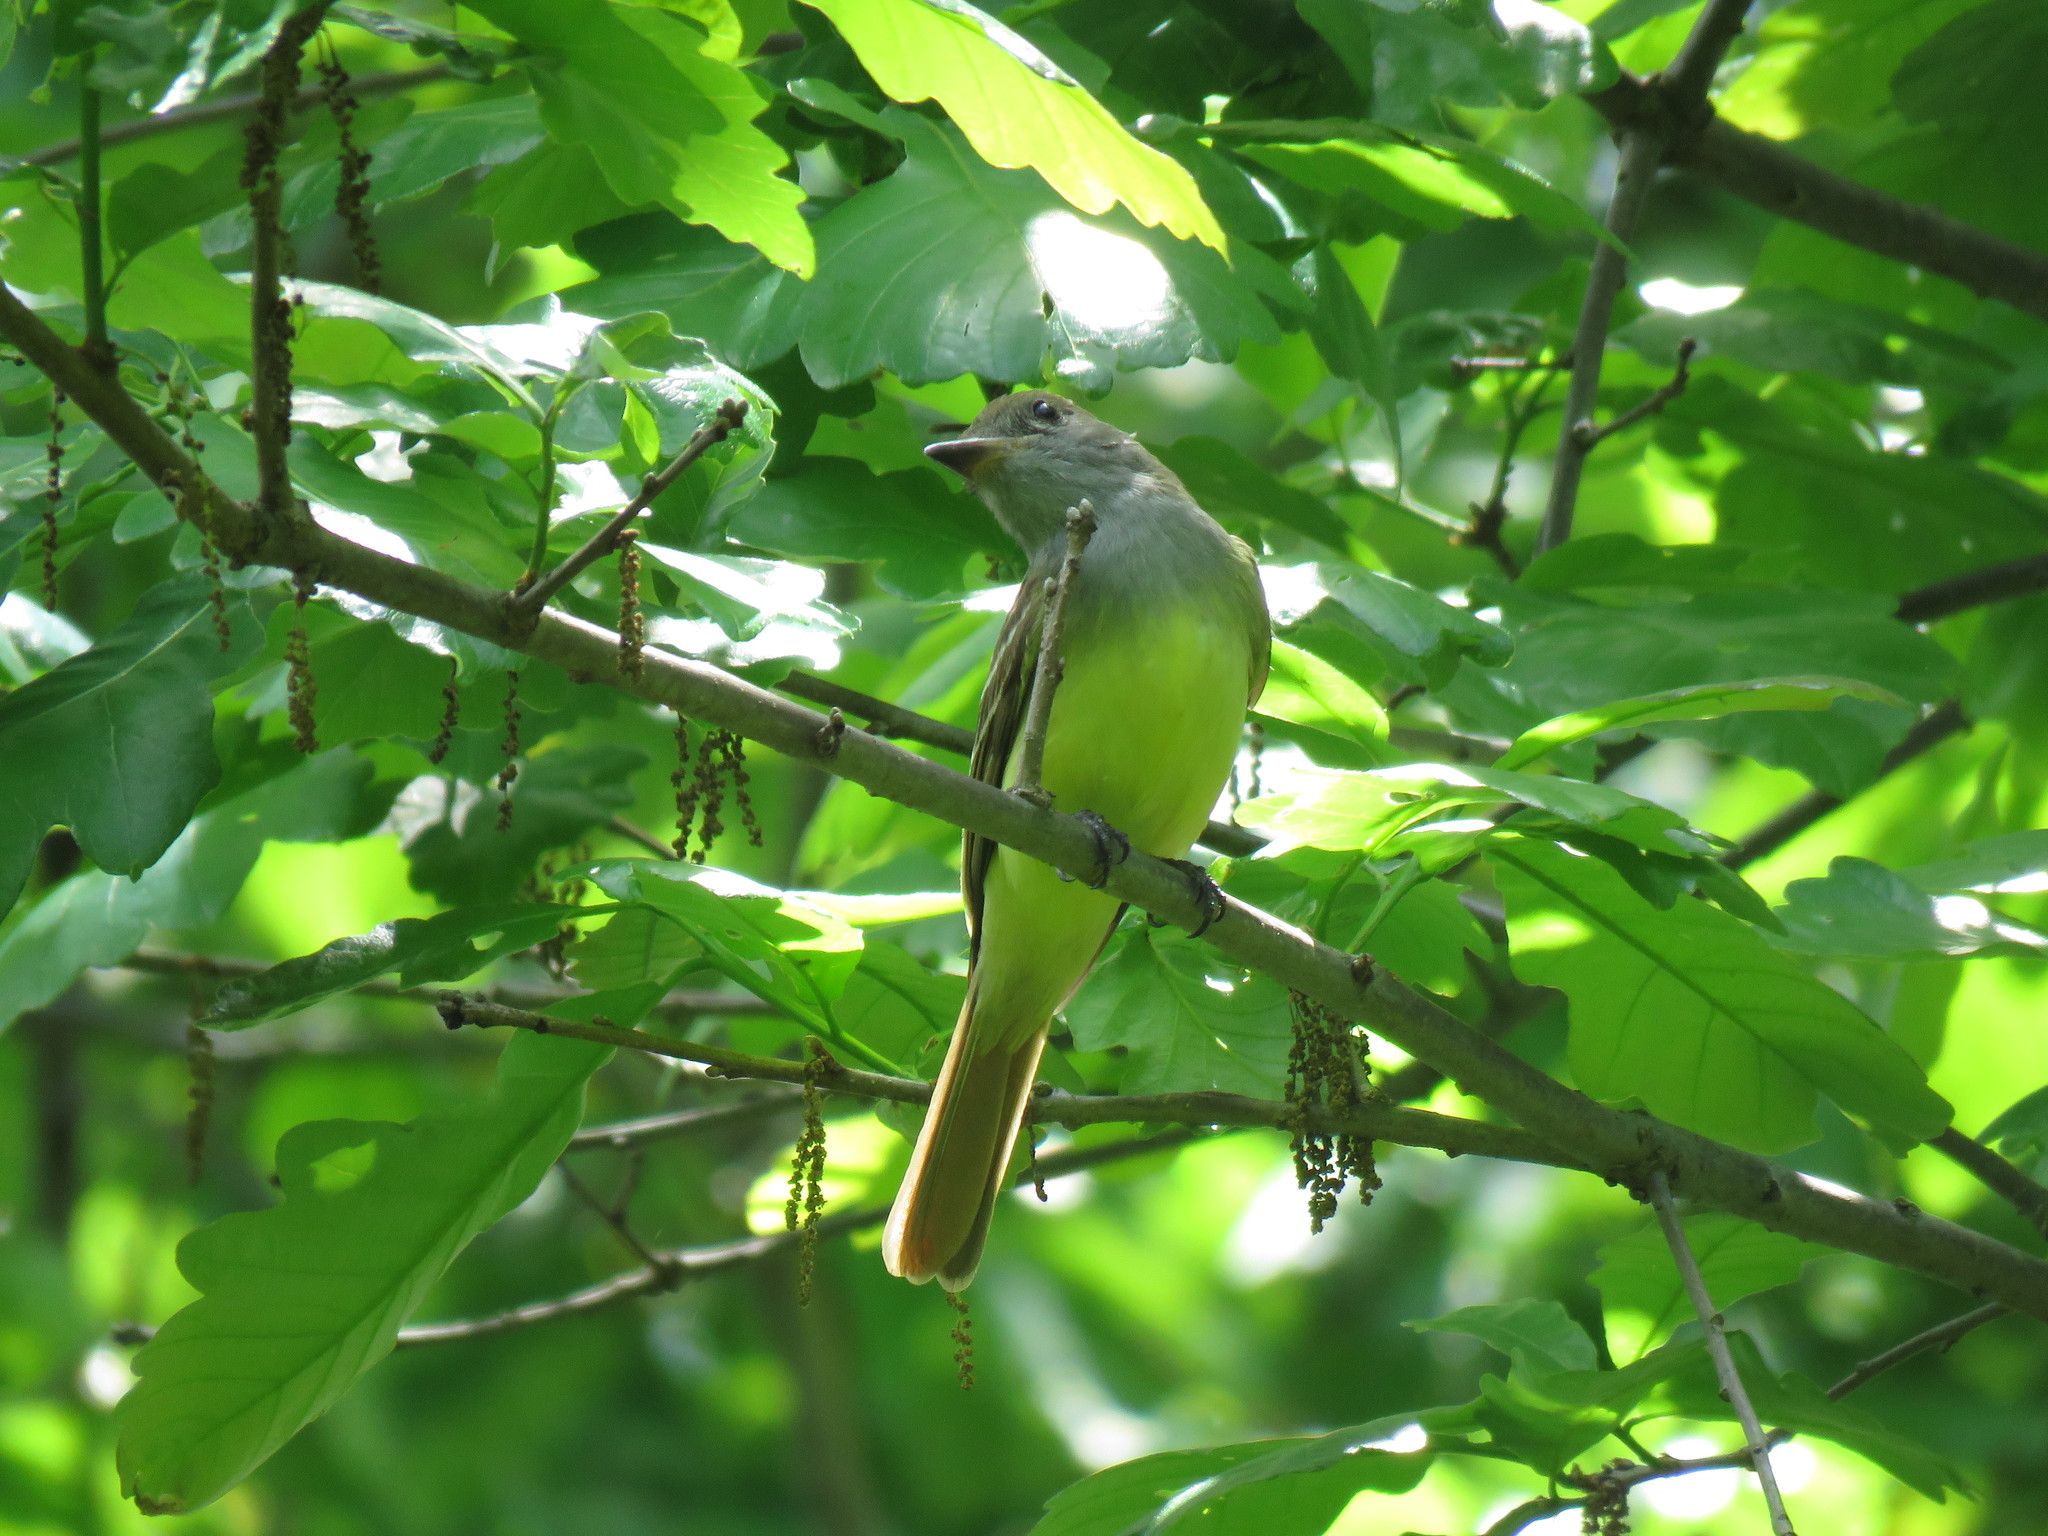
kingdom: Animalia
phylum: Chordata
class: Aves
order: Passeriformes
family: Tyrannidae
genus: Myiarchus
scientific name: Myiarchus crinitus
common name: Great crested flycatcher
